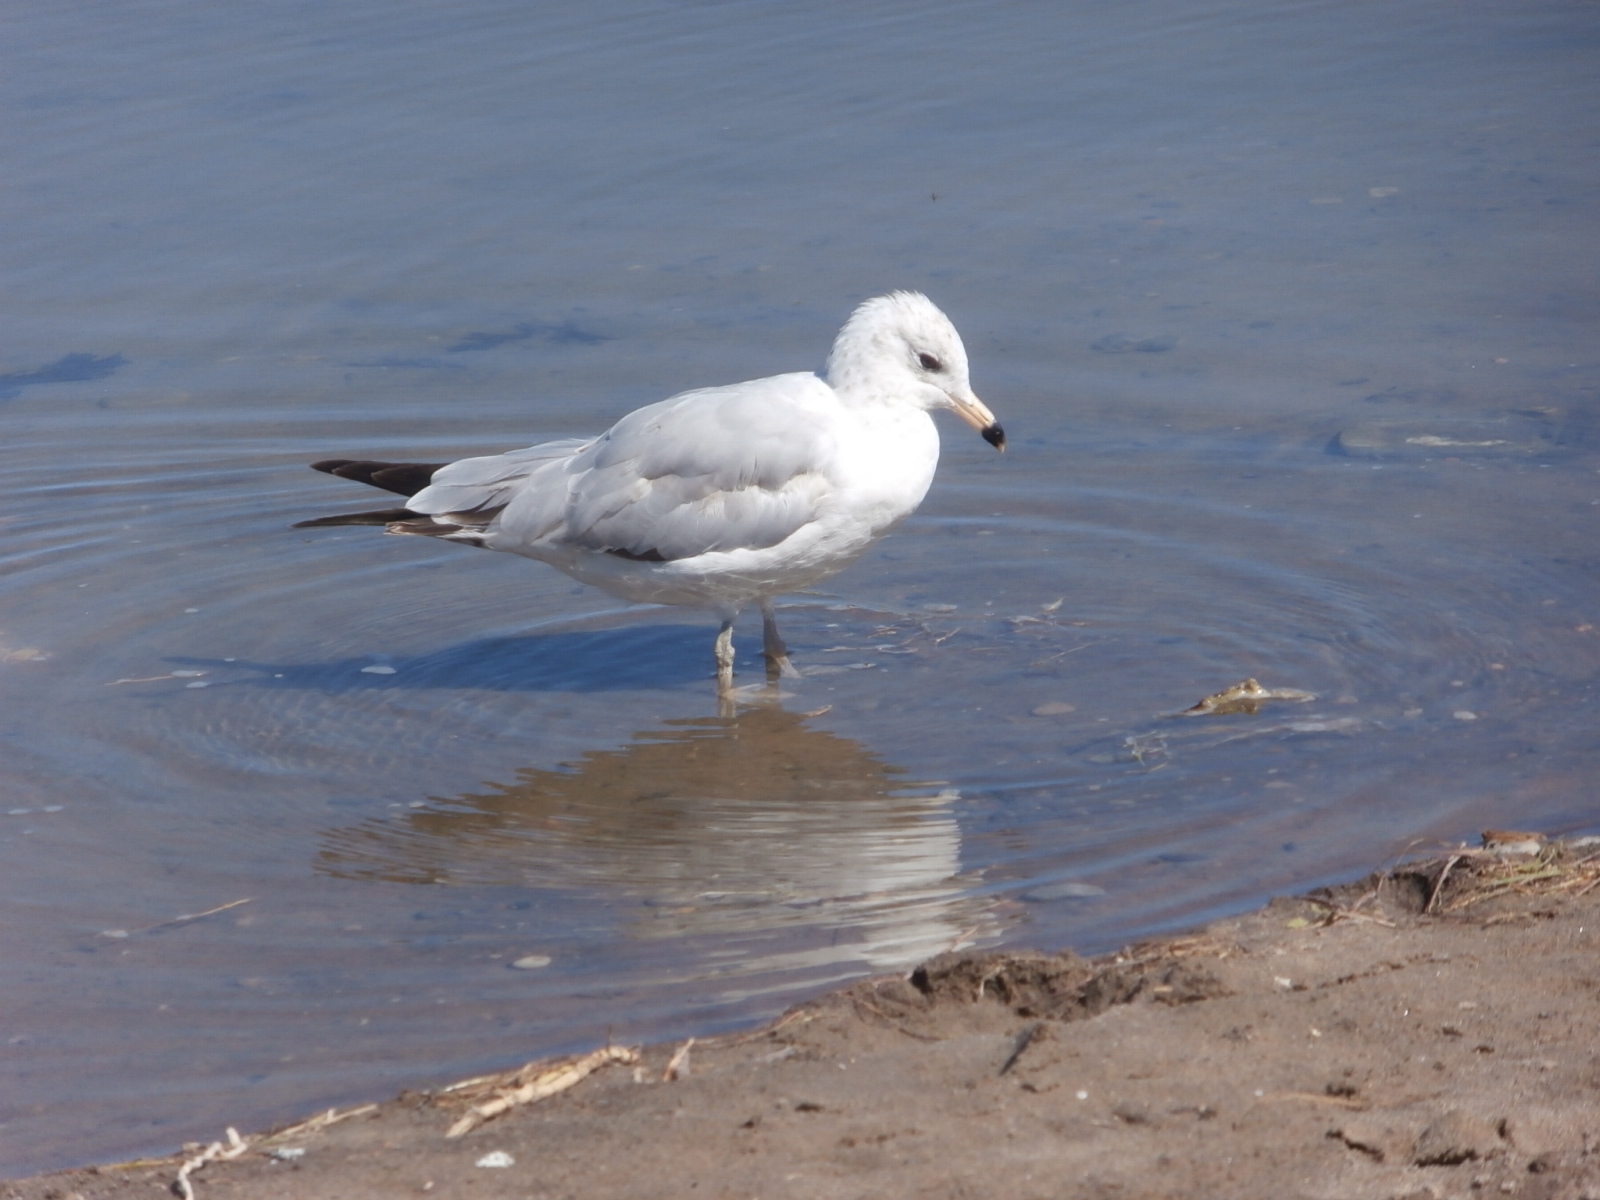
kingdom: Animalia
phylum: Chordata
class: Aves
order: Charadriiformes
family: Laridae
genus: Larus
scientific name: Larus delawarensis
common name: Ring-billed gull
